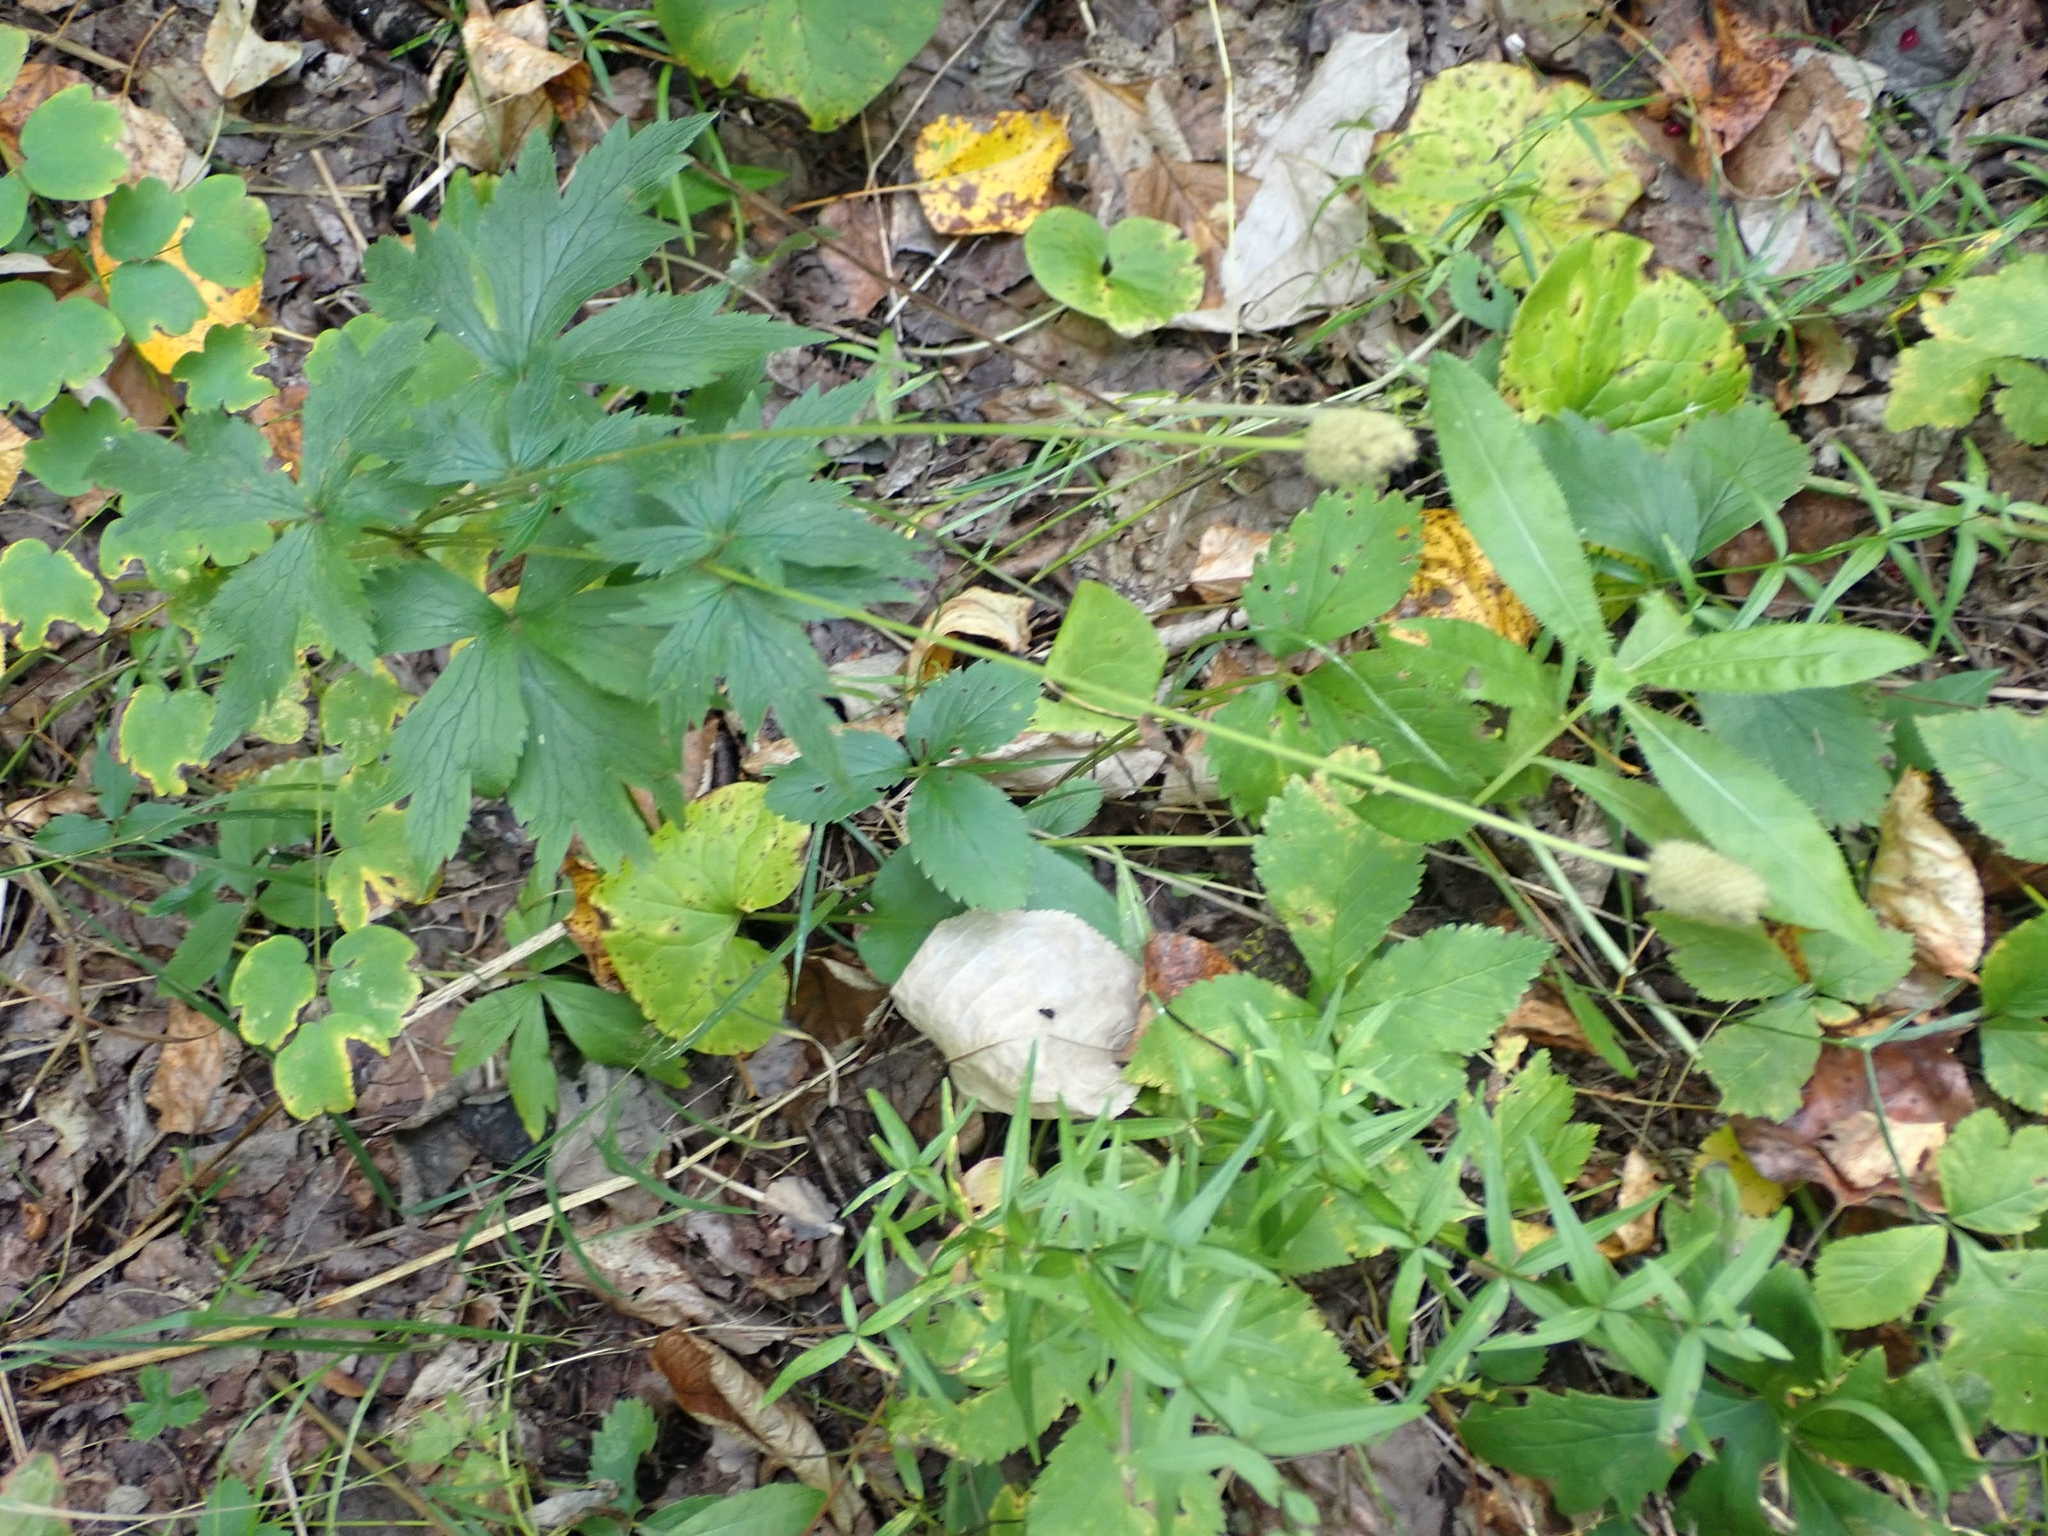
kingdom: Plantae
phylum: Tracheophyta
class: Magnoliopsida
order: Ranunculales
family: Ranunculaceae
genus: Anemone
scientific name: Anemone virginiana
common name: Tall anemone
